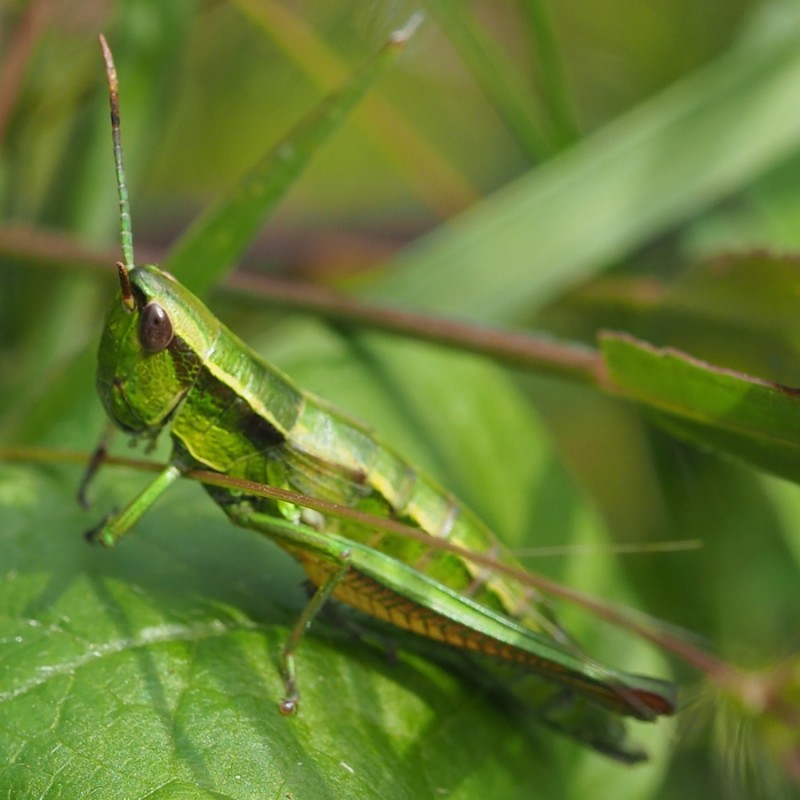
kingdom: Animalia
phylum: Arthropoda
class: Insecta
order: Orthoptera
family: Acrididae
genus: Euthystira
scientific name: Euthystira brachyptera
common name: Small gold grasshopper
